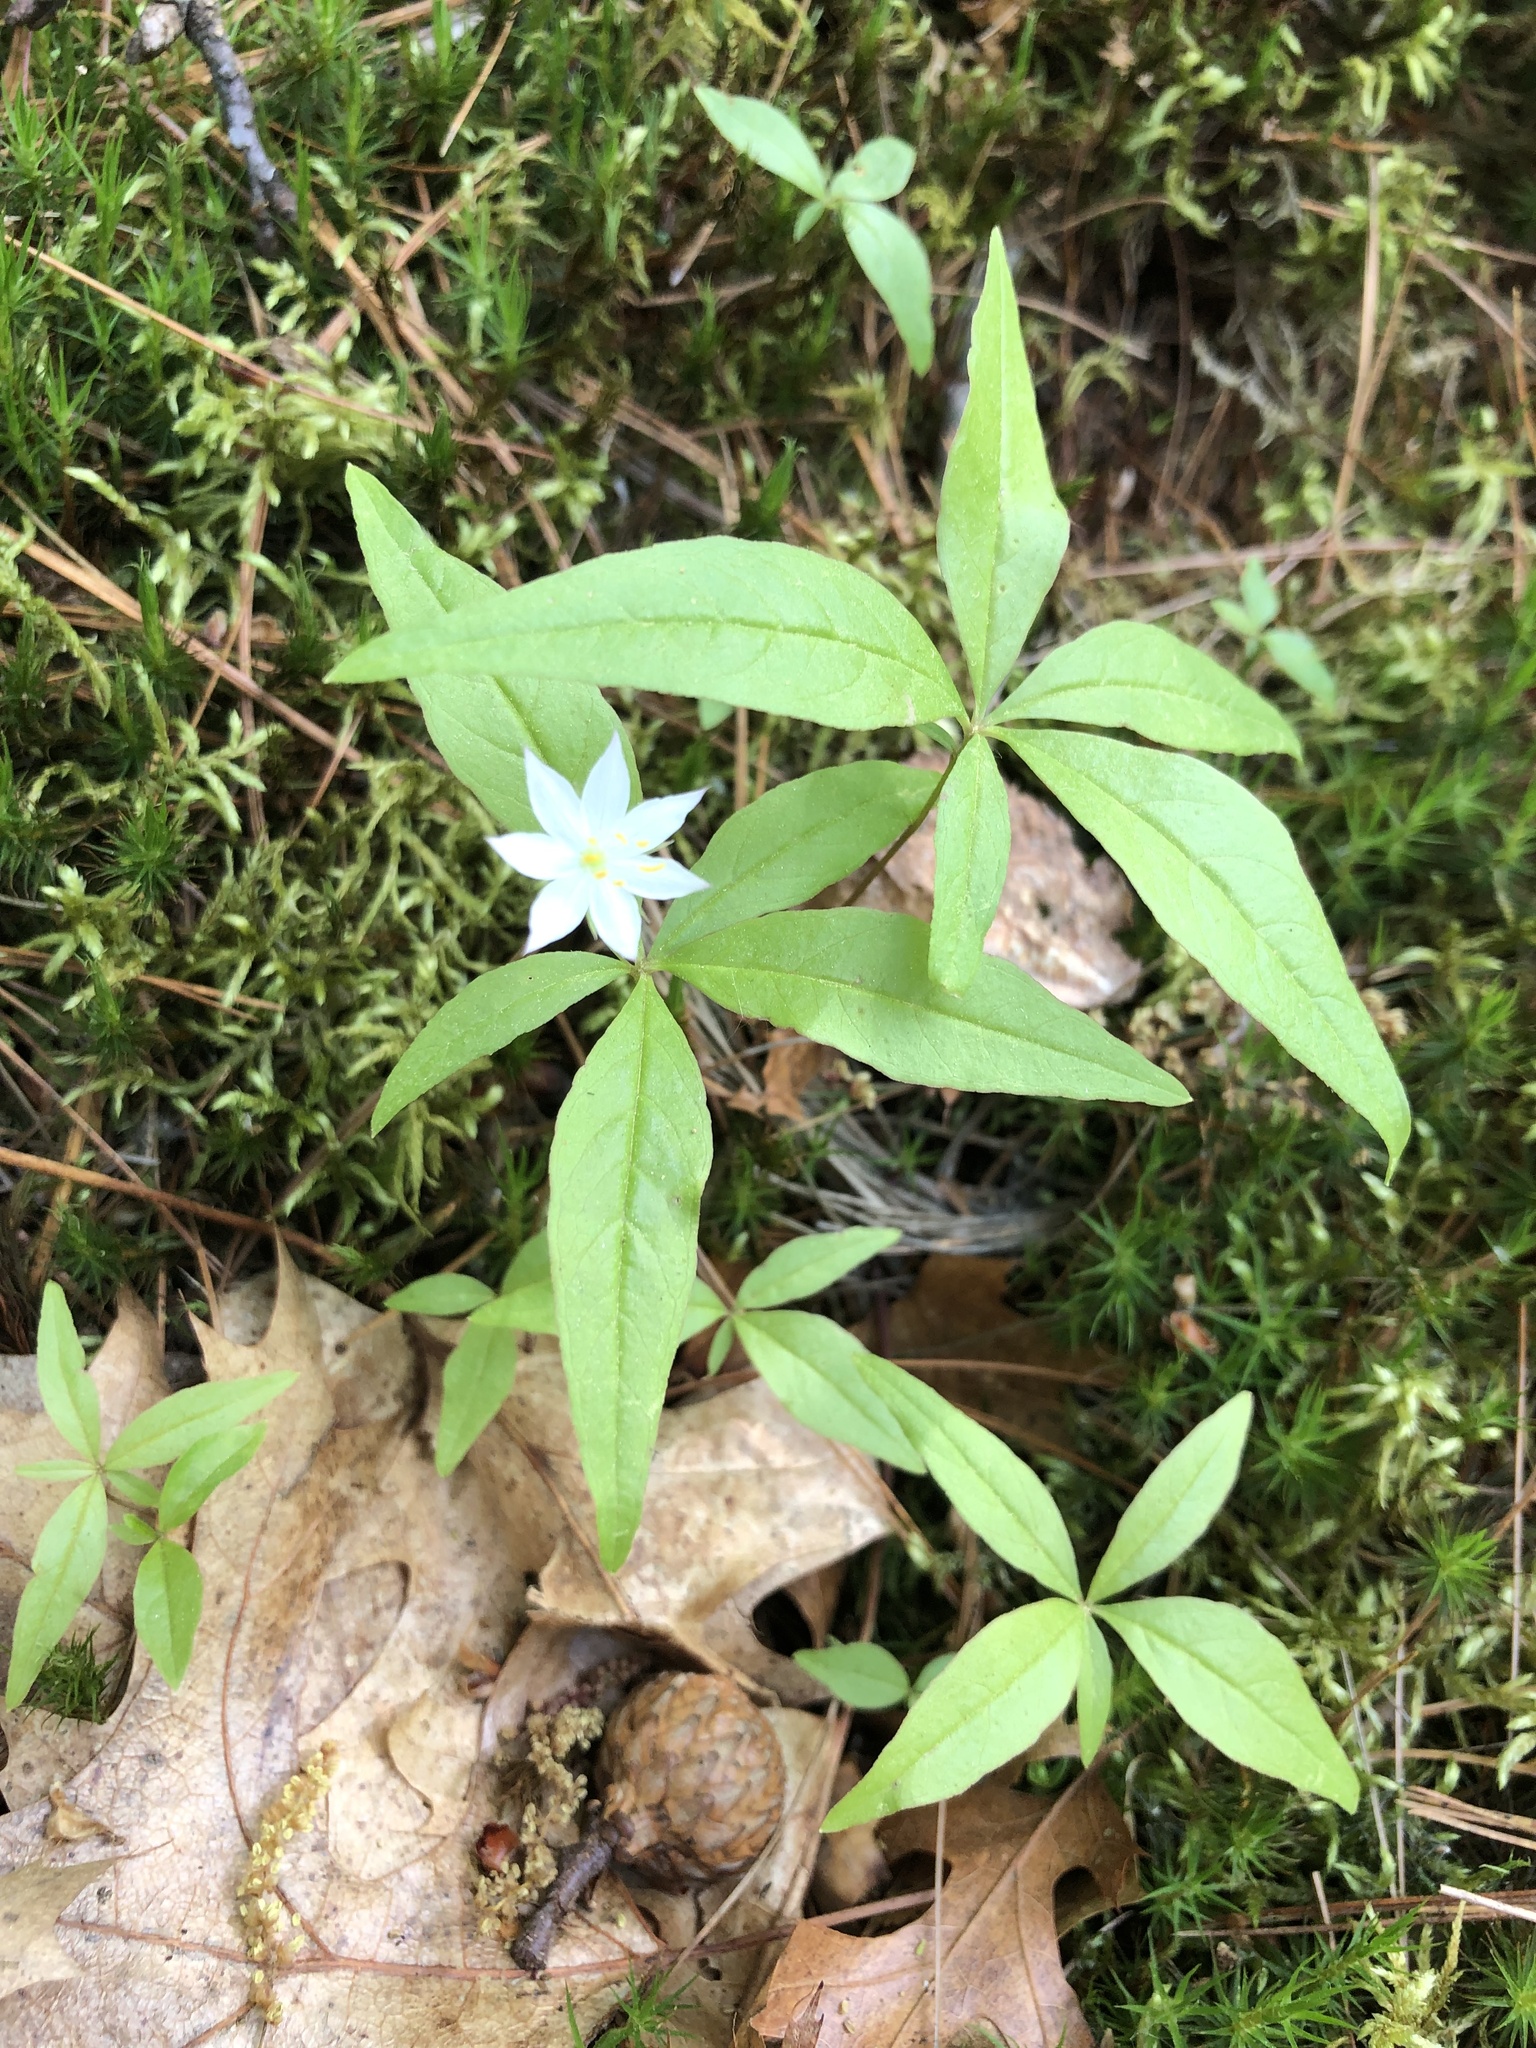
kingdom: Plantae
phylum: Tracheophyta
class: Magnoliopsida
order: Ericales
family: Primulaceae
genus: Lysimachia
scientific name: Lysimachia borealis
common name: American starflower
